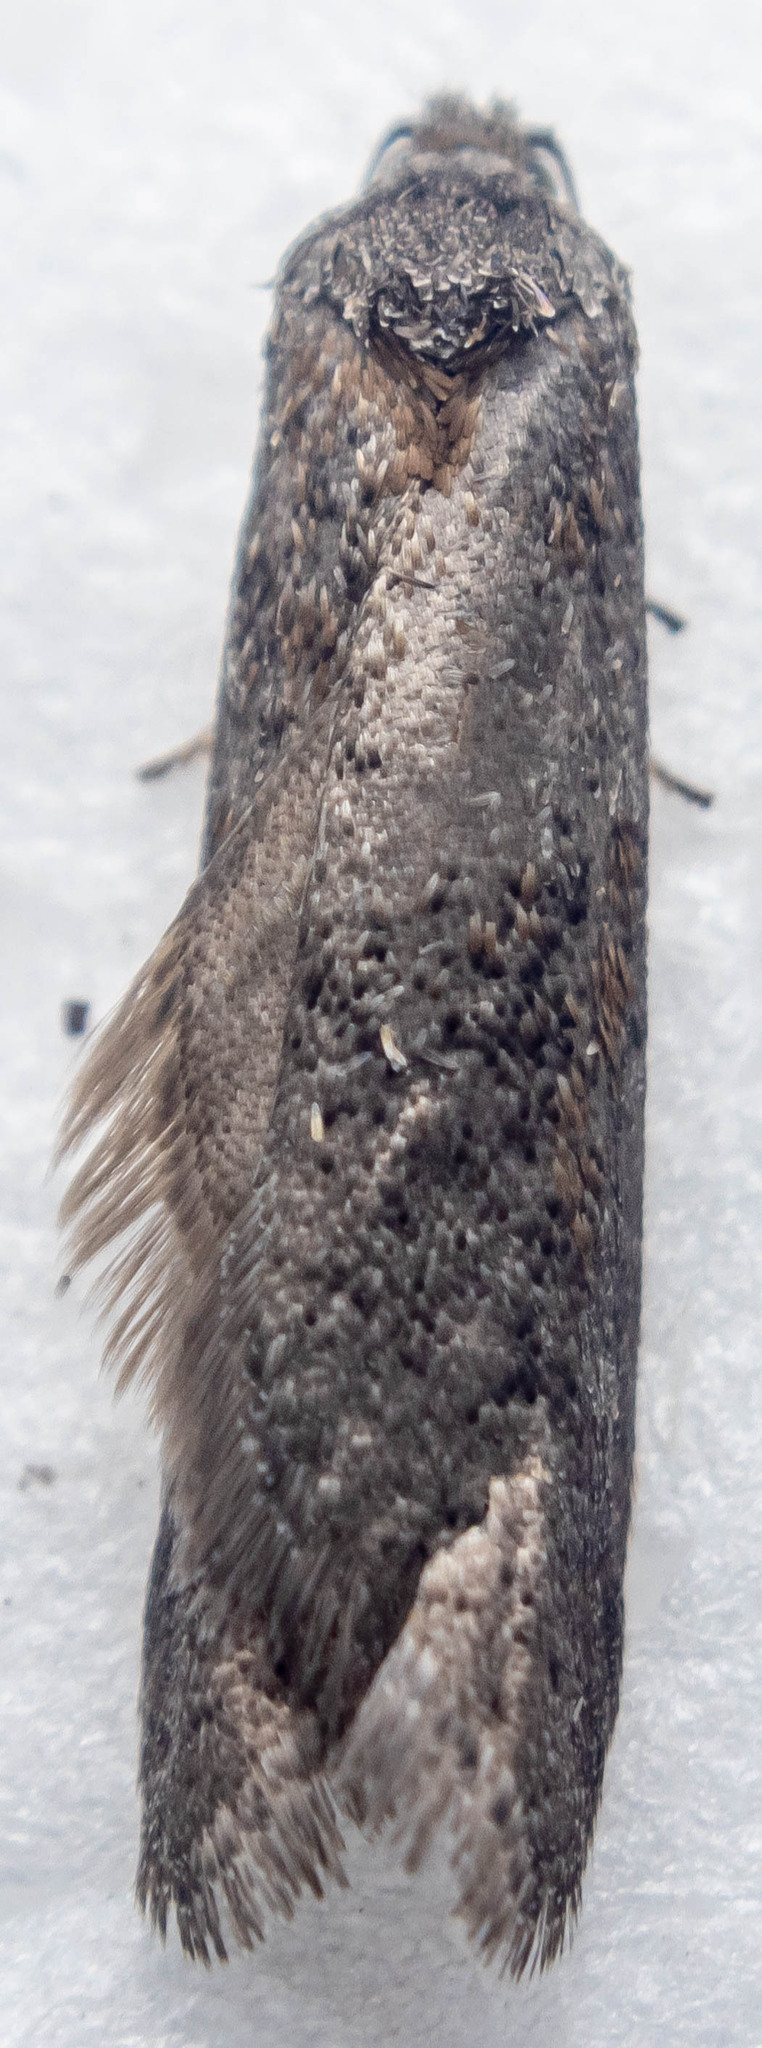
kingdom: Animalia
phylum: Arthropoda
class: Insecta
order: Lepidoptera
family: Tortricidae
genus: Tortricodes
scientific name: Tortricodes alternella
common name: Winter shade
